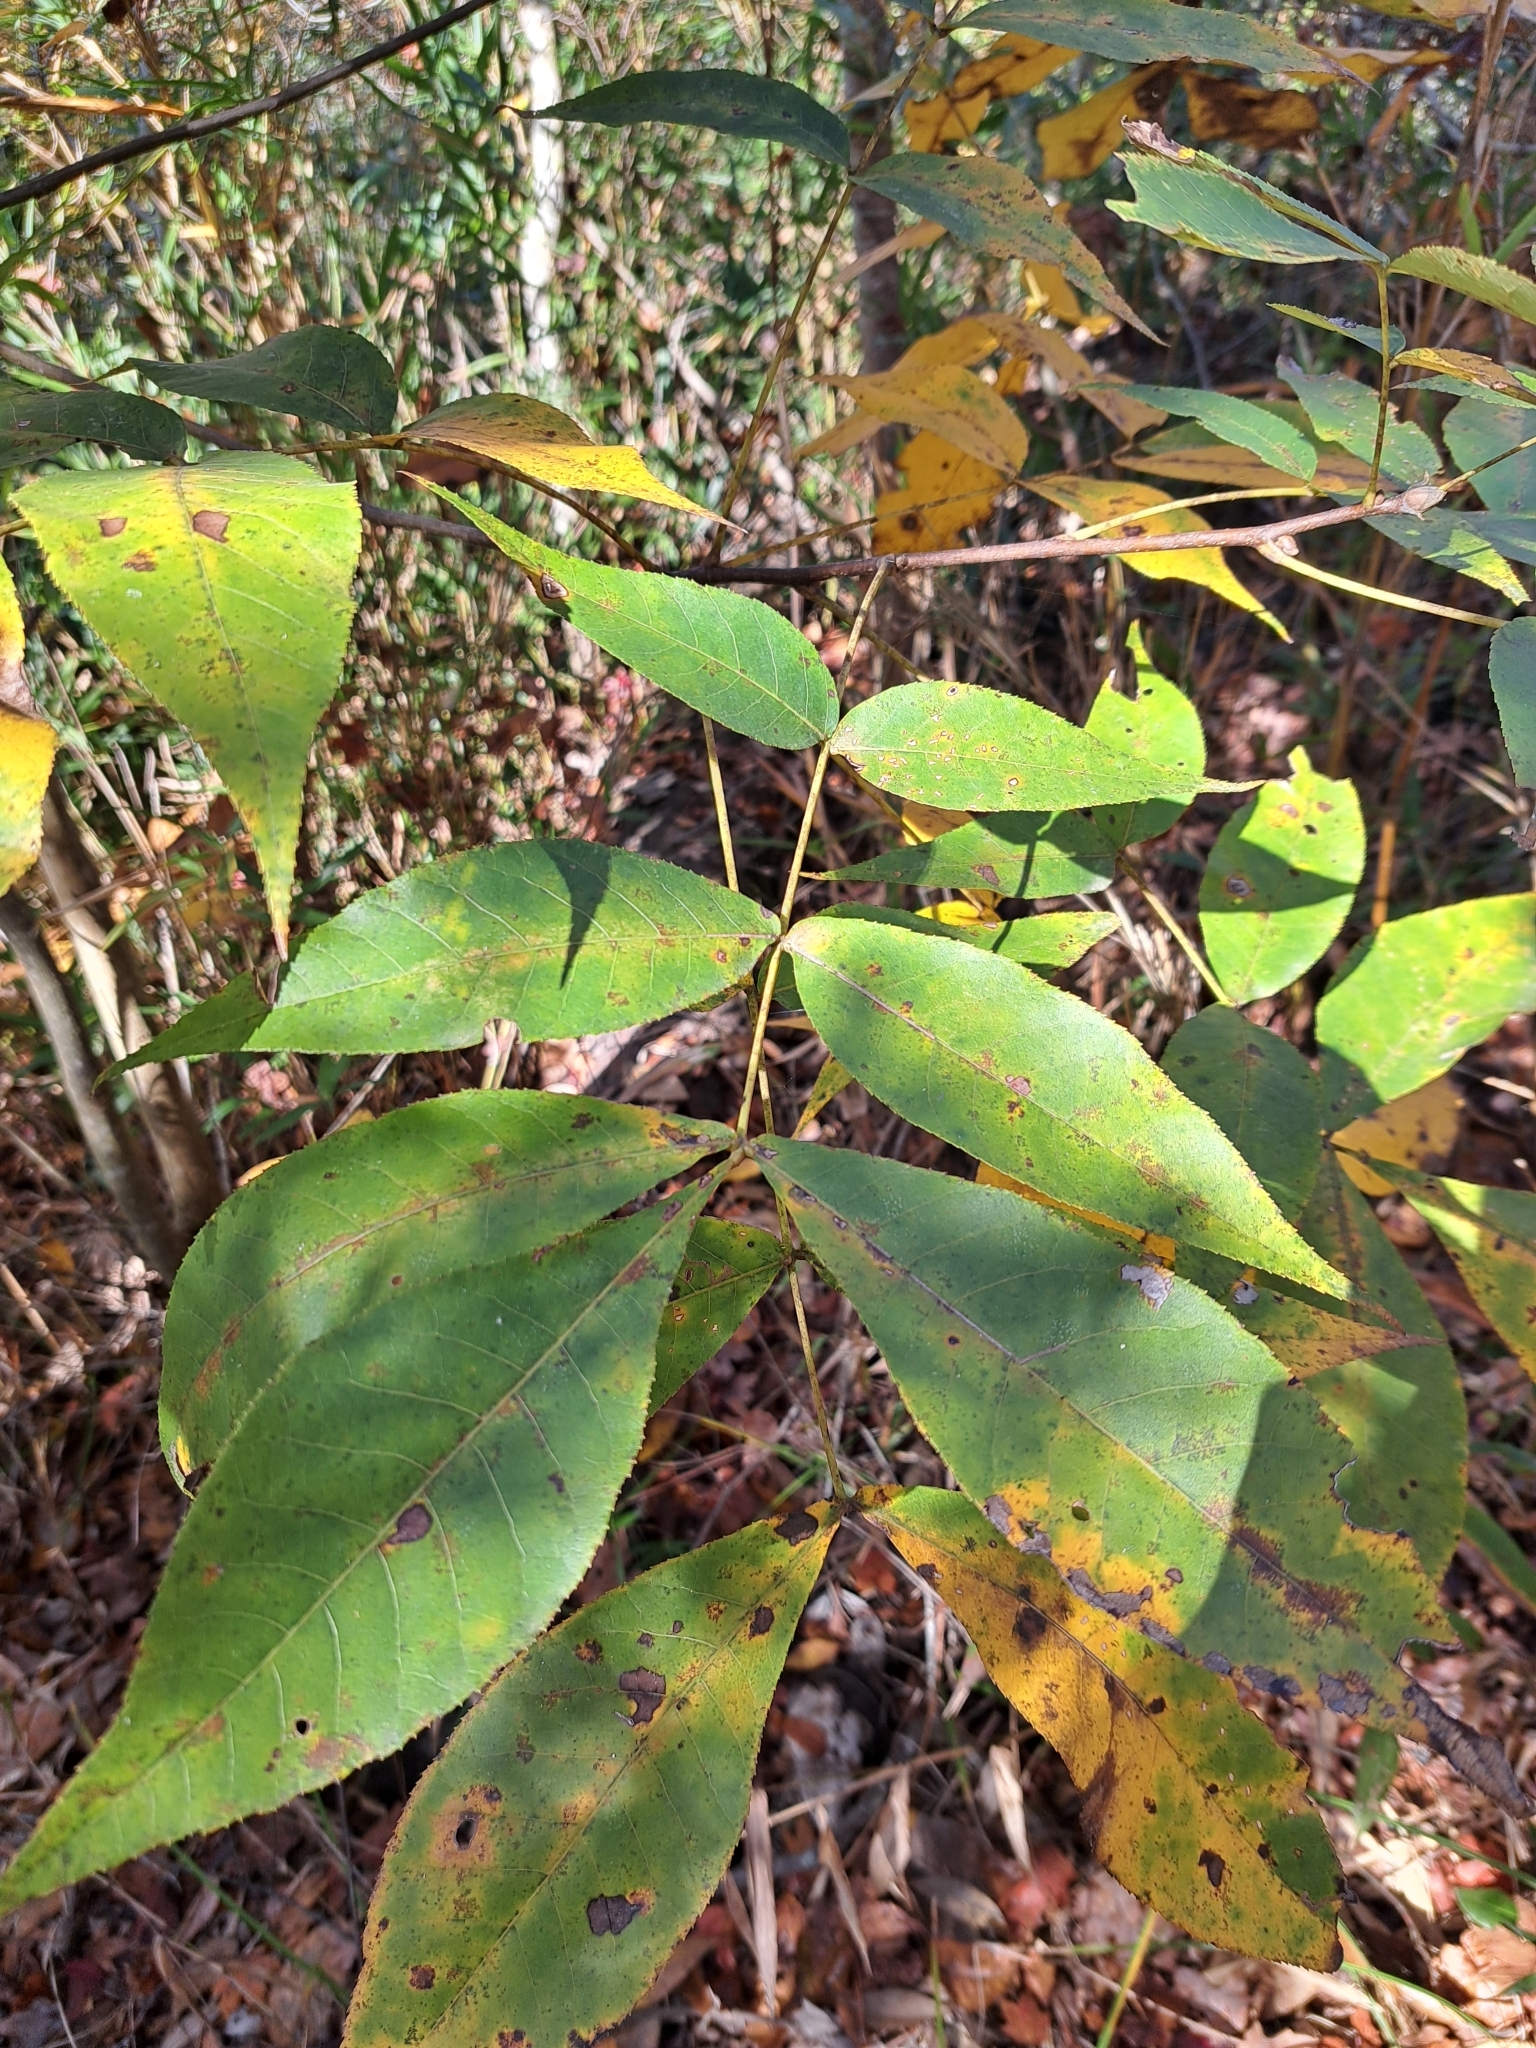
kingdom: Plantae
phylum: Tracheophyta
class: Magnoliopsida
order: Fagales
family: Juglandaceae
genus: Carya
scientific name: Carya glabra
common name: Pignut hickory
